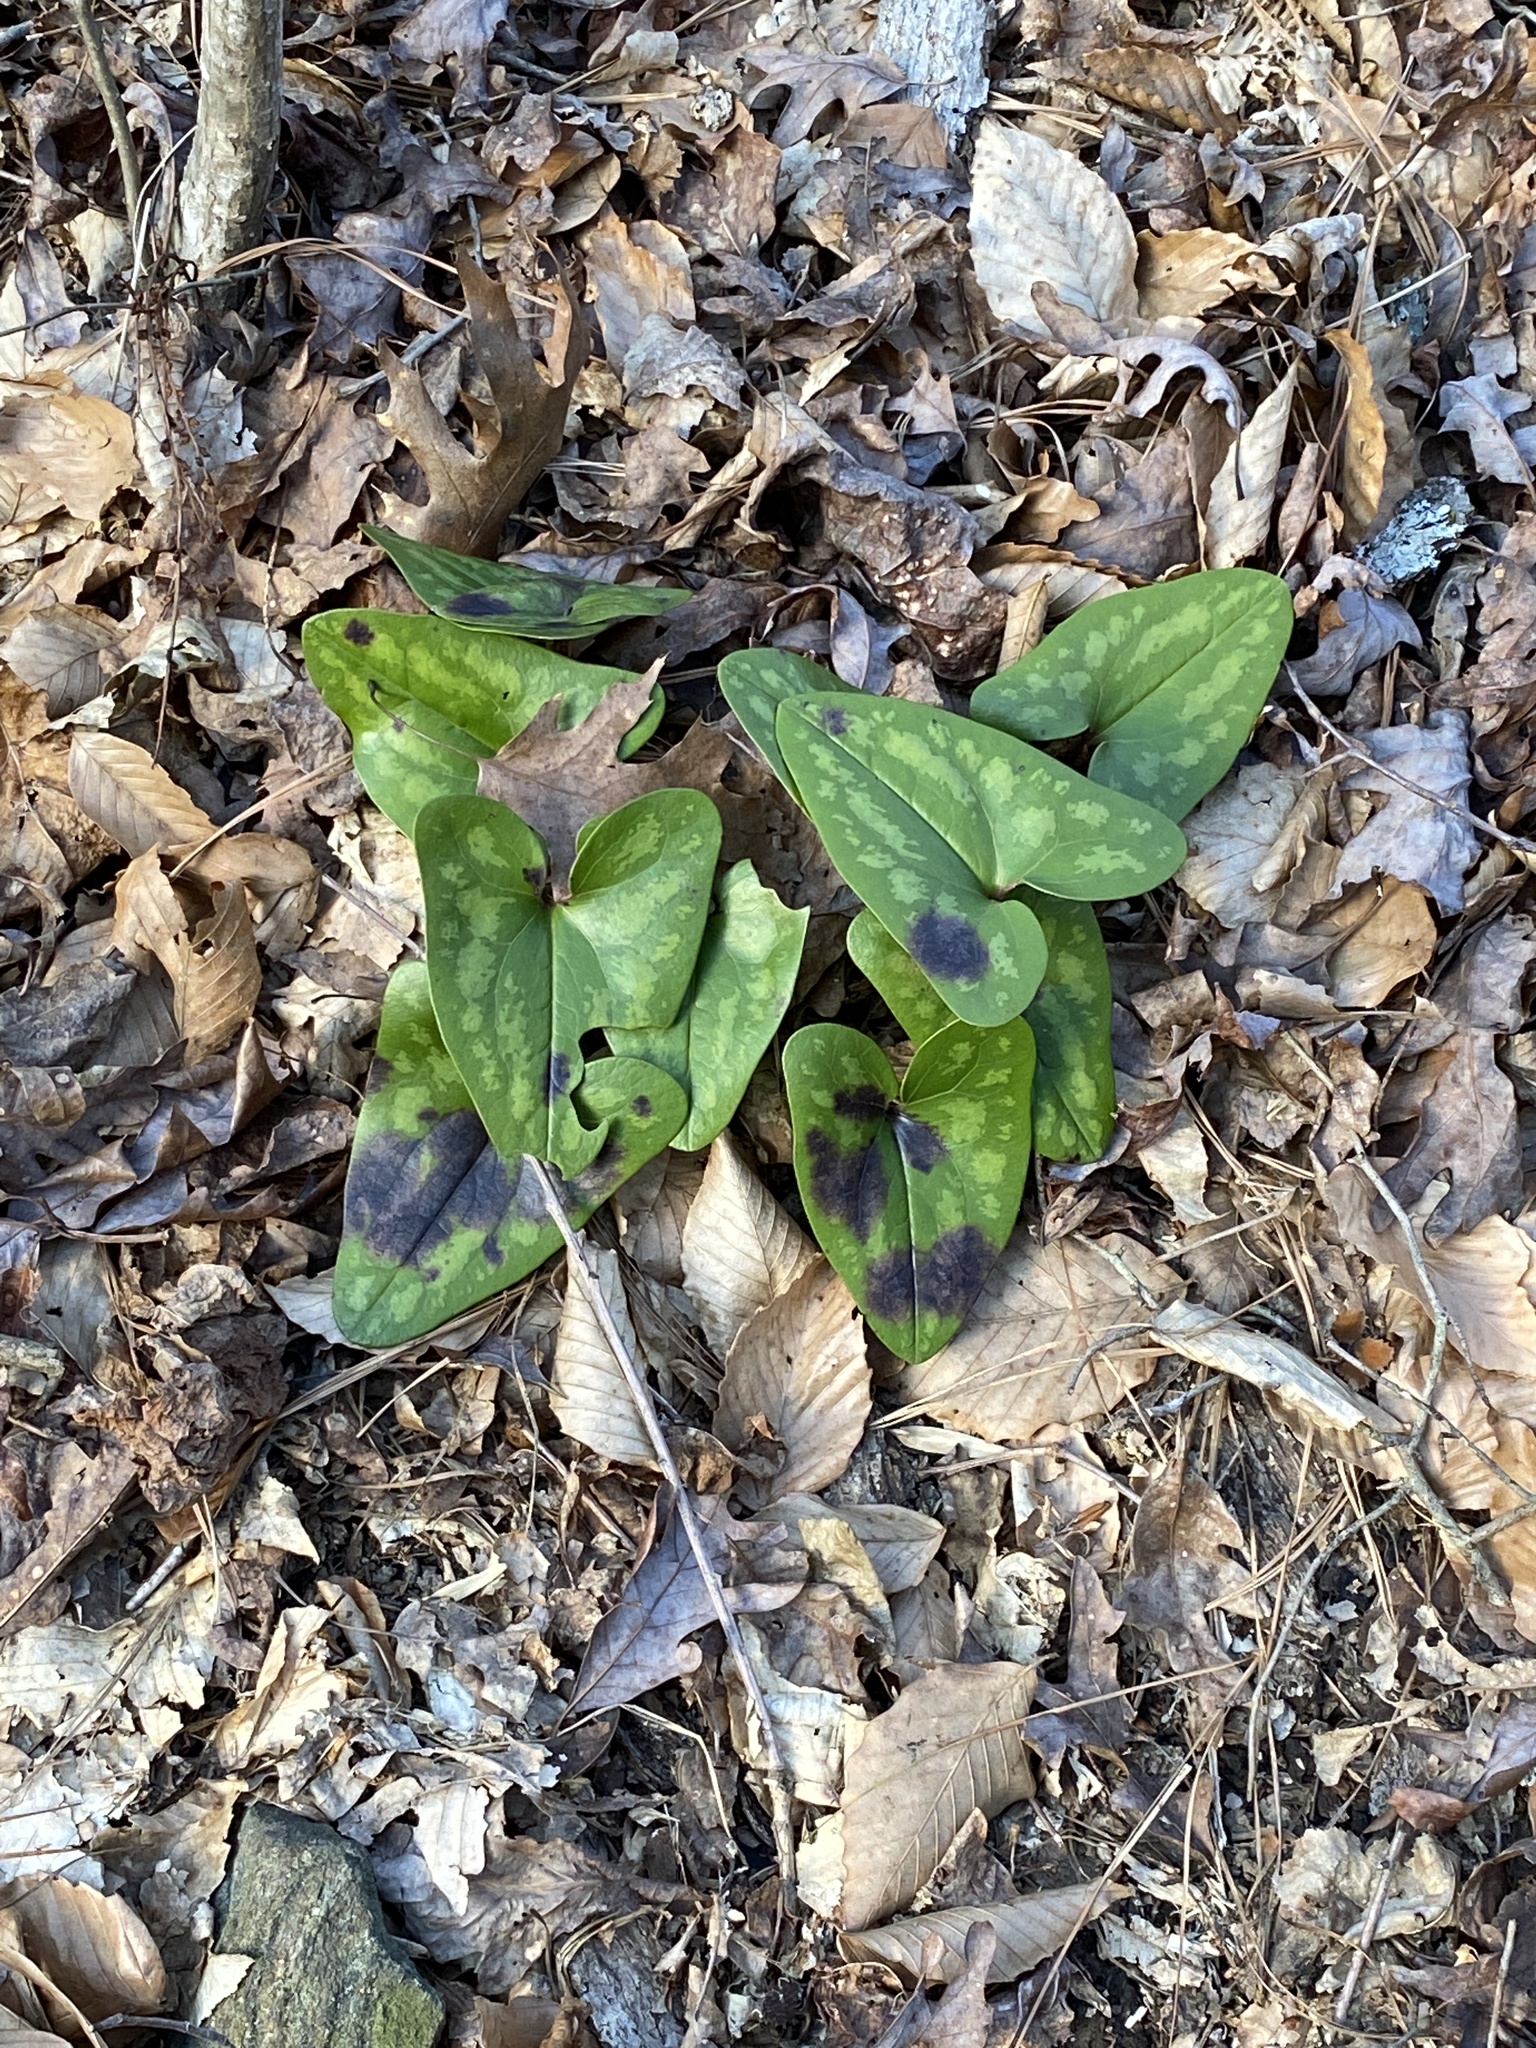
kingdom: Plantae
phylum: Tracheophyta
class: Magnoliopsida
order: Piperales
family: Aristolochiaceae
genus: Hexastylis
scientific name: Hexastylis arifolia
